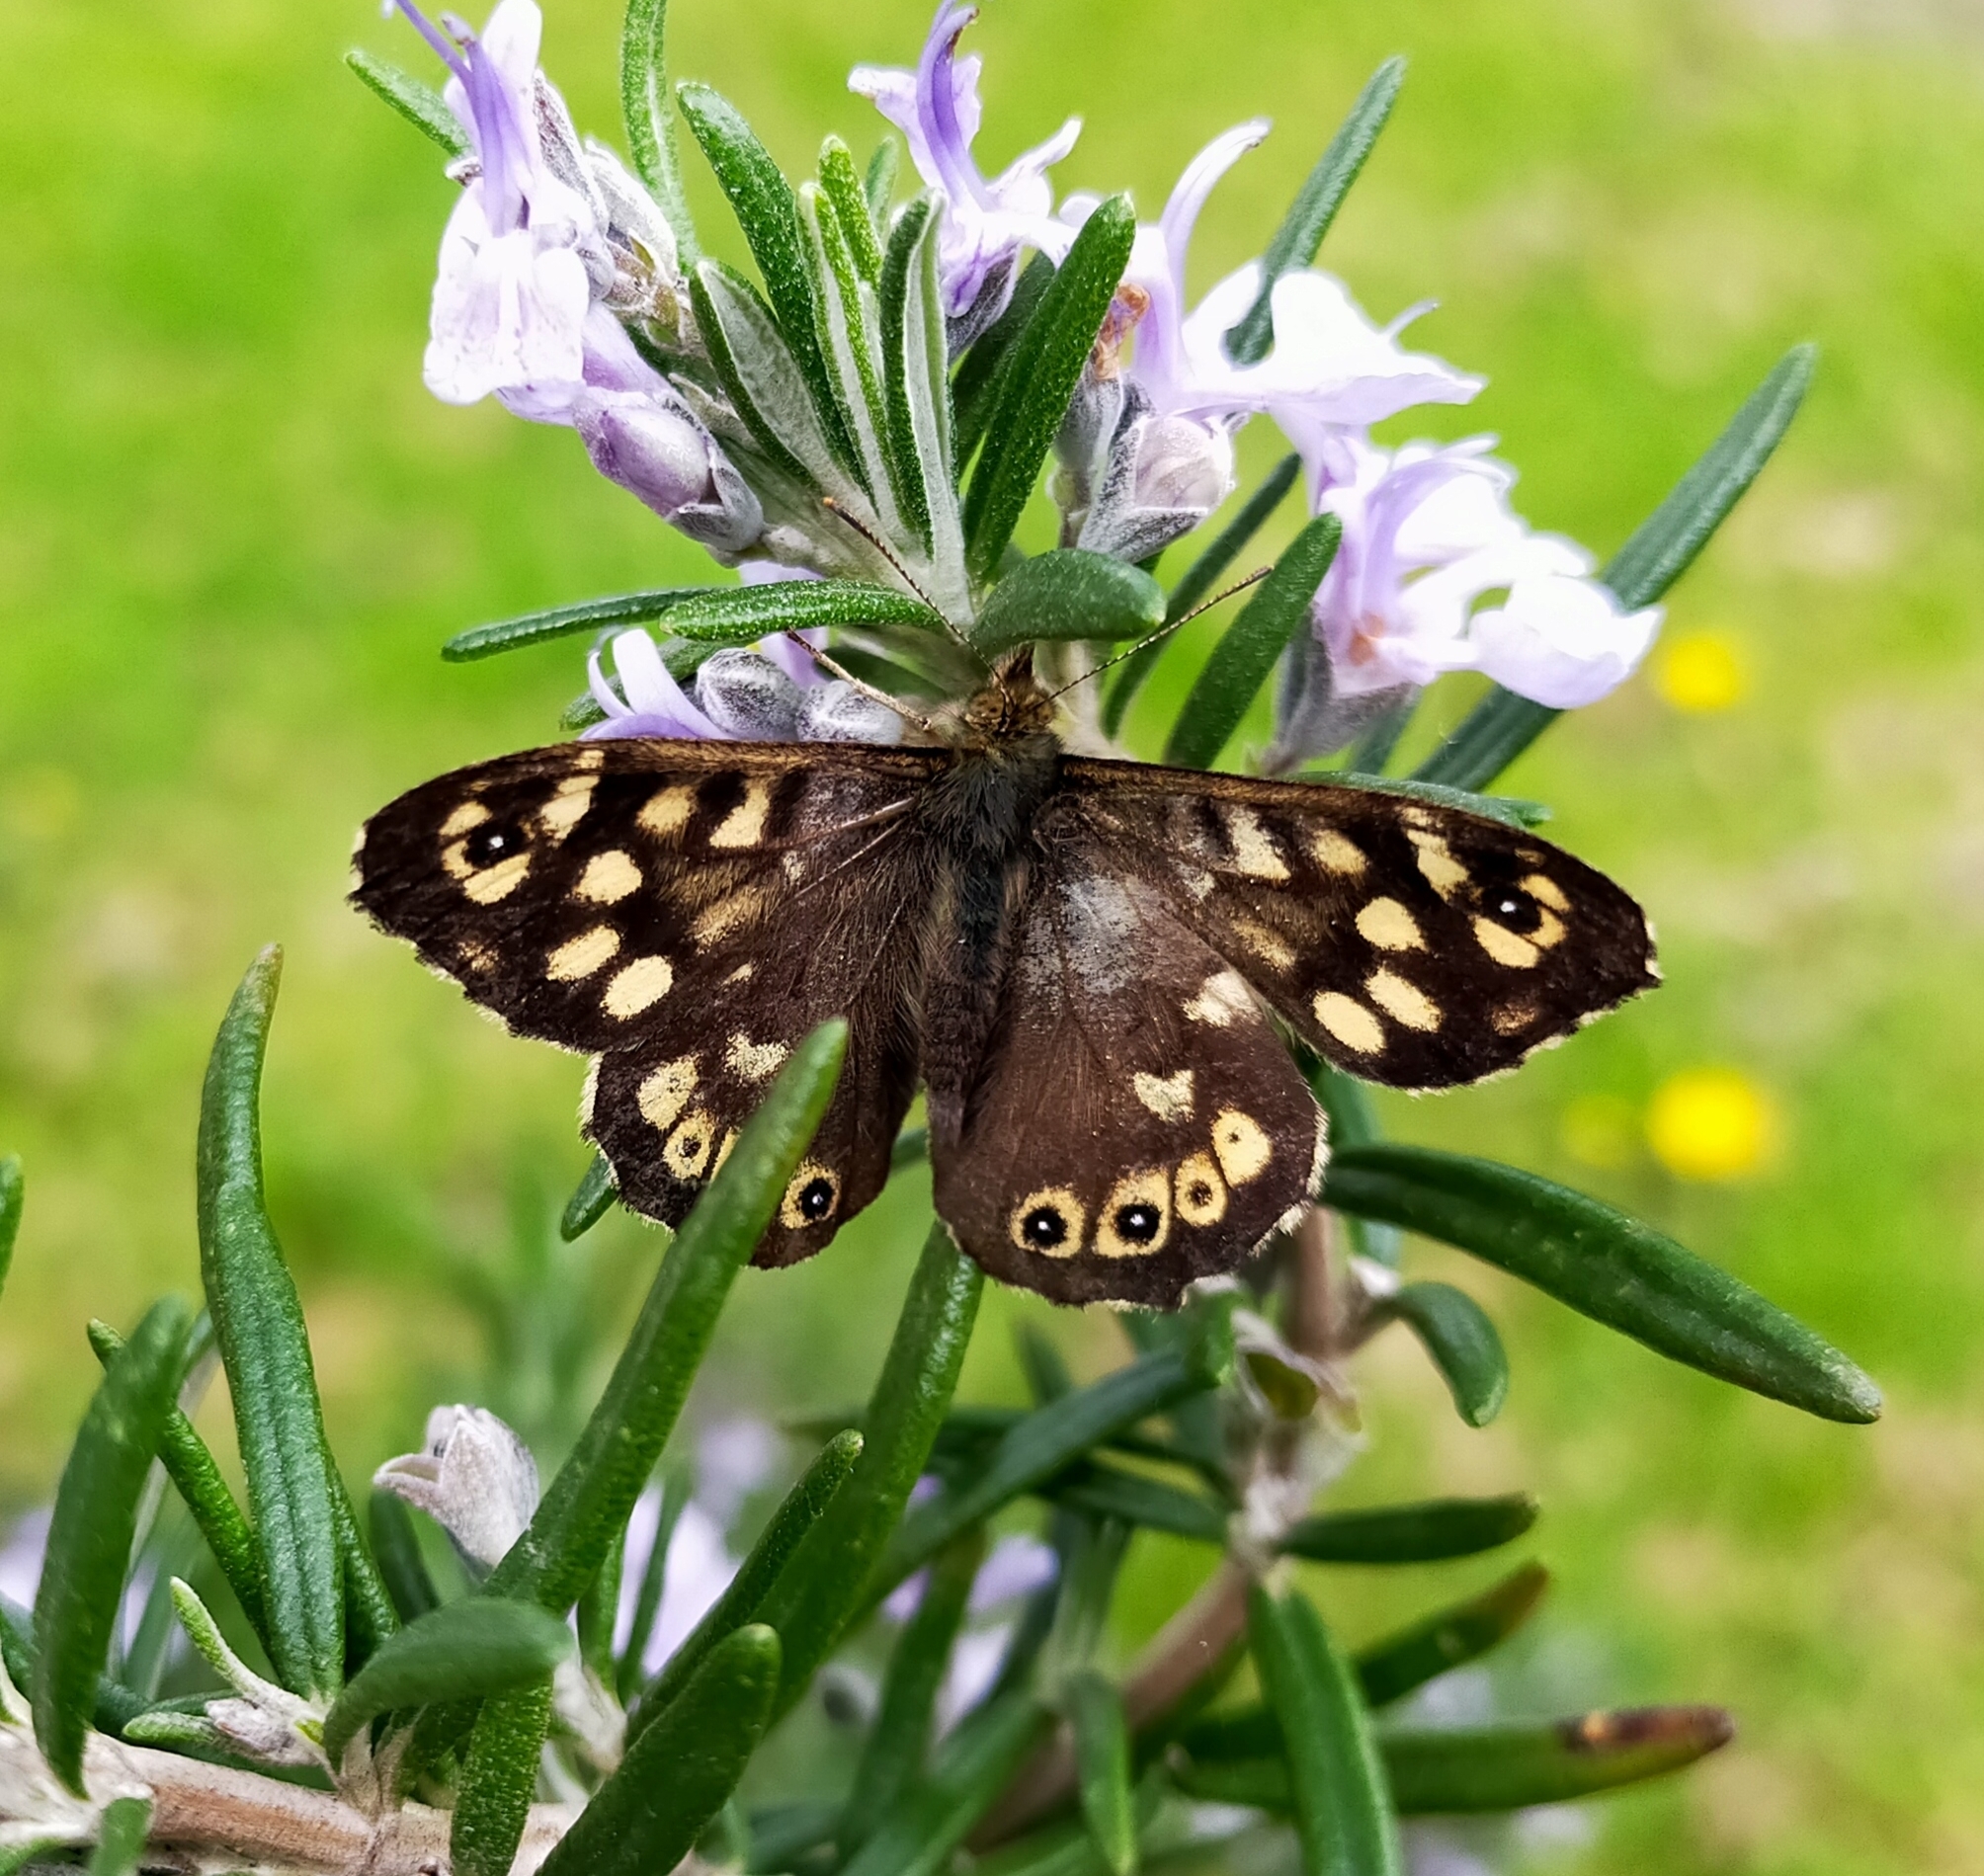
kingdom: Animalia
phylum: Arthropoda
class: Insecta
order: Lepidoptera
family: Nymphalidae
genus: Pararge
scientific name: Pararge aegeria
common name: Speckled wood
